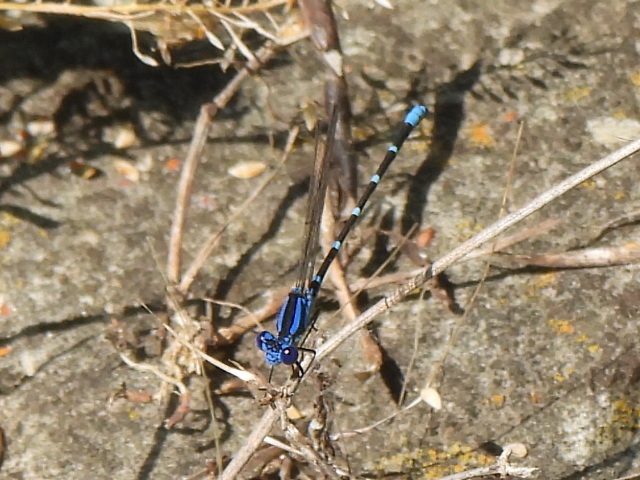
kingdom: Animalia
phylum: Arthropoda
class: Insecta
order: Odonata
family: Coenagrionidae
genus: Argia
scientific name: Argia sedula
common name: Blue-ringed dancer
